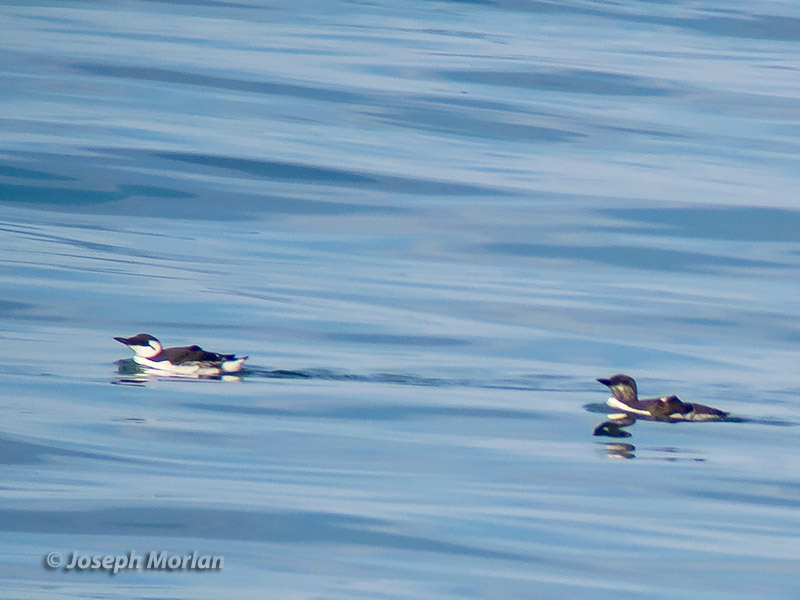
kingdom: Animalia
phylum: Chordata
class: Aves
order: Charadriiformes
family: Alcidae
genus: Uria
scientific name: Uria aalge
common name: Common murre
